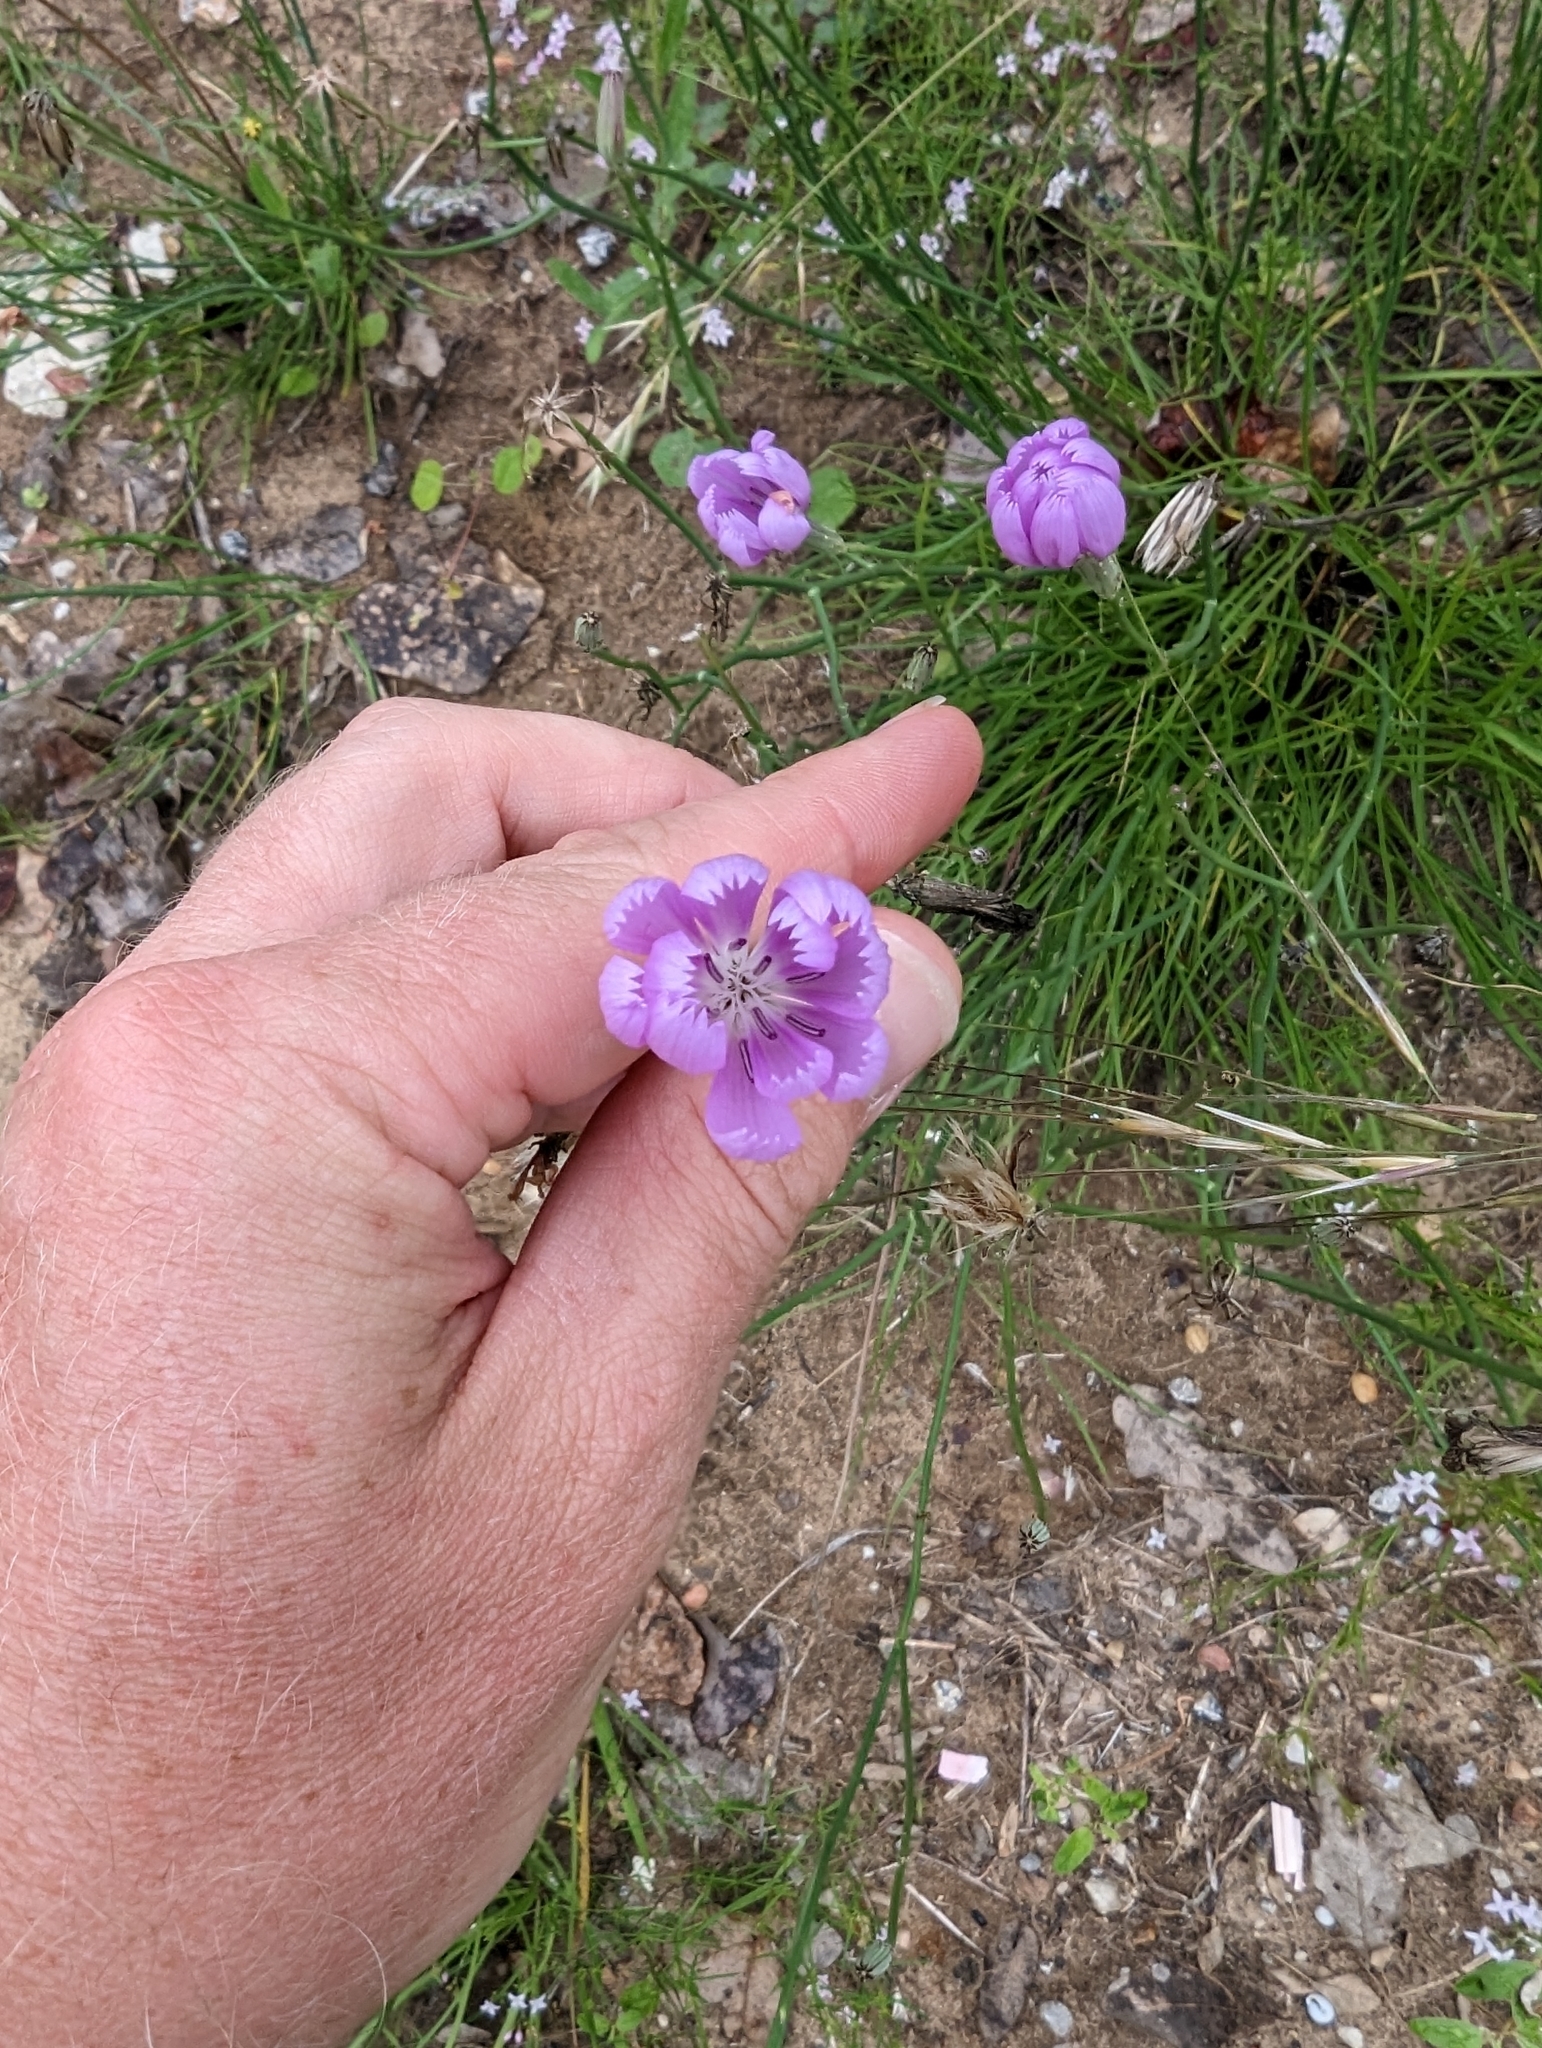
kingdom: Plantae
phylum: Tracheophyta
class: Magnoliopsida
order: Asterales
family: Asteraceae
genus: Lygodesmia
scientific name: Lygodesmia texana
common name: Texas skeleton-plant
